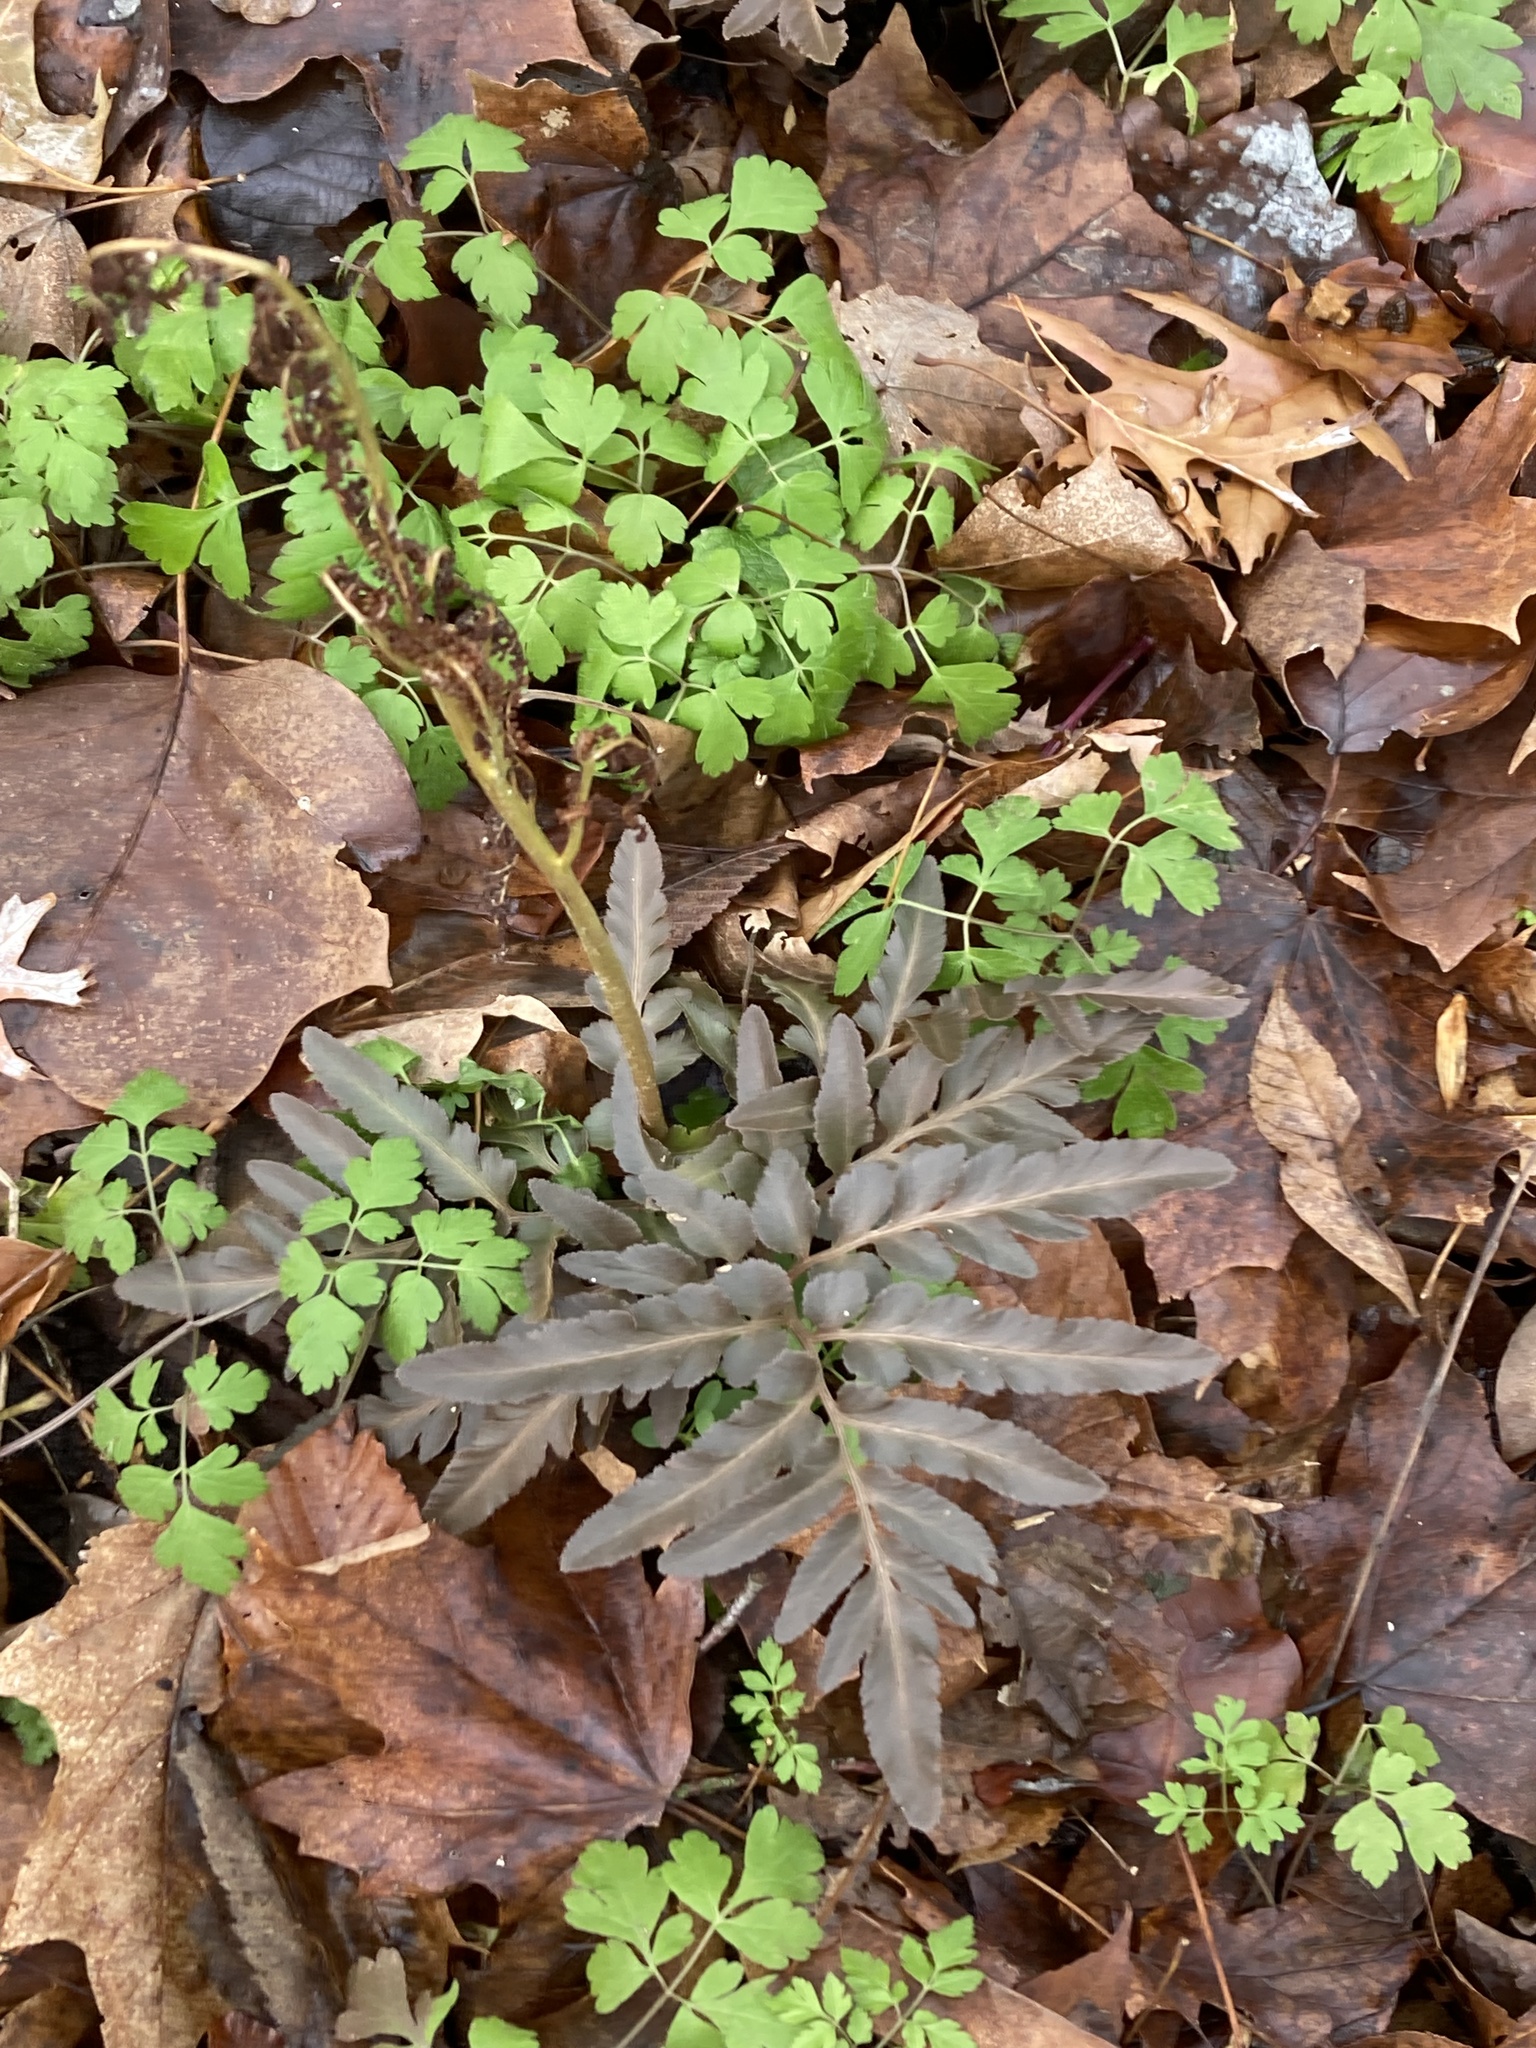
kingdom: Plantae
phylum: Tracheophyta
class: Polypodiopsida
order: Ophioglossales
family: Ophioglossaceae
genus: Sceptridium
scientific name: Sceptridium dissectum
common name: Cut-leaved grapefern
